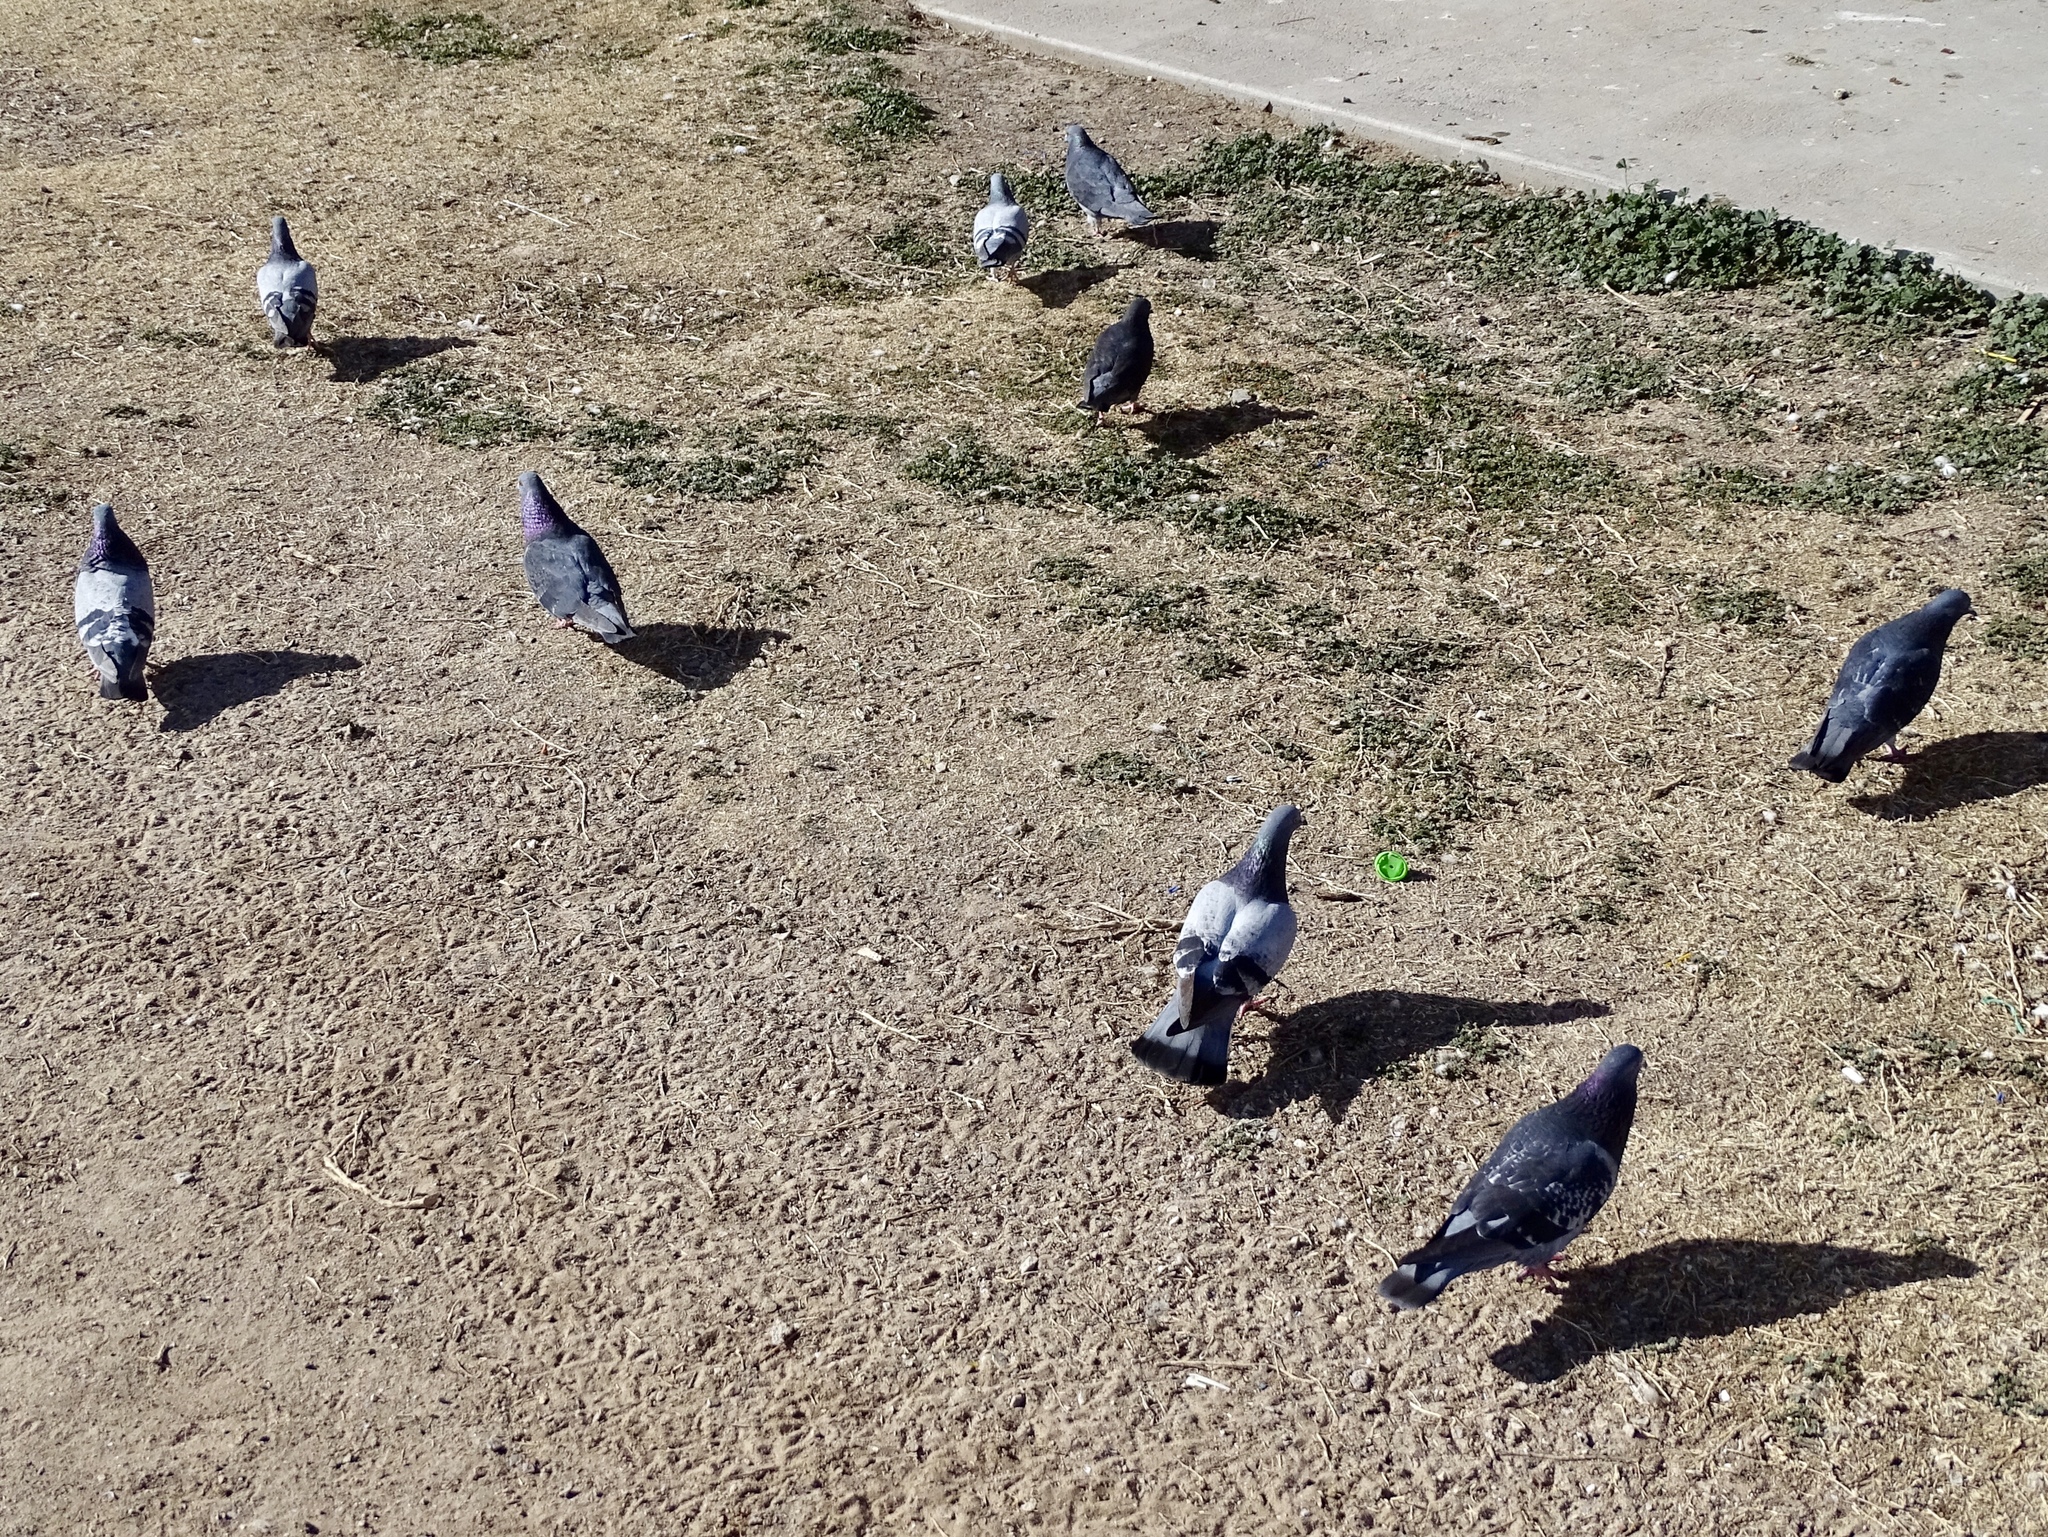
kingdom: Animalia
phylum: Chordata
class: Aves
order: Columbiformes
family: Columbidae
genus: Columba
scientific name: Columba livia
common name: Rock pigeon
